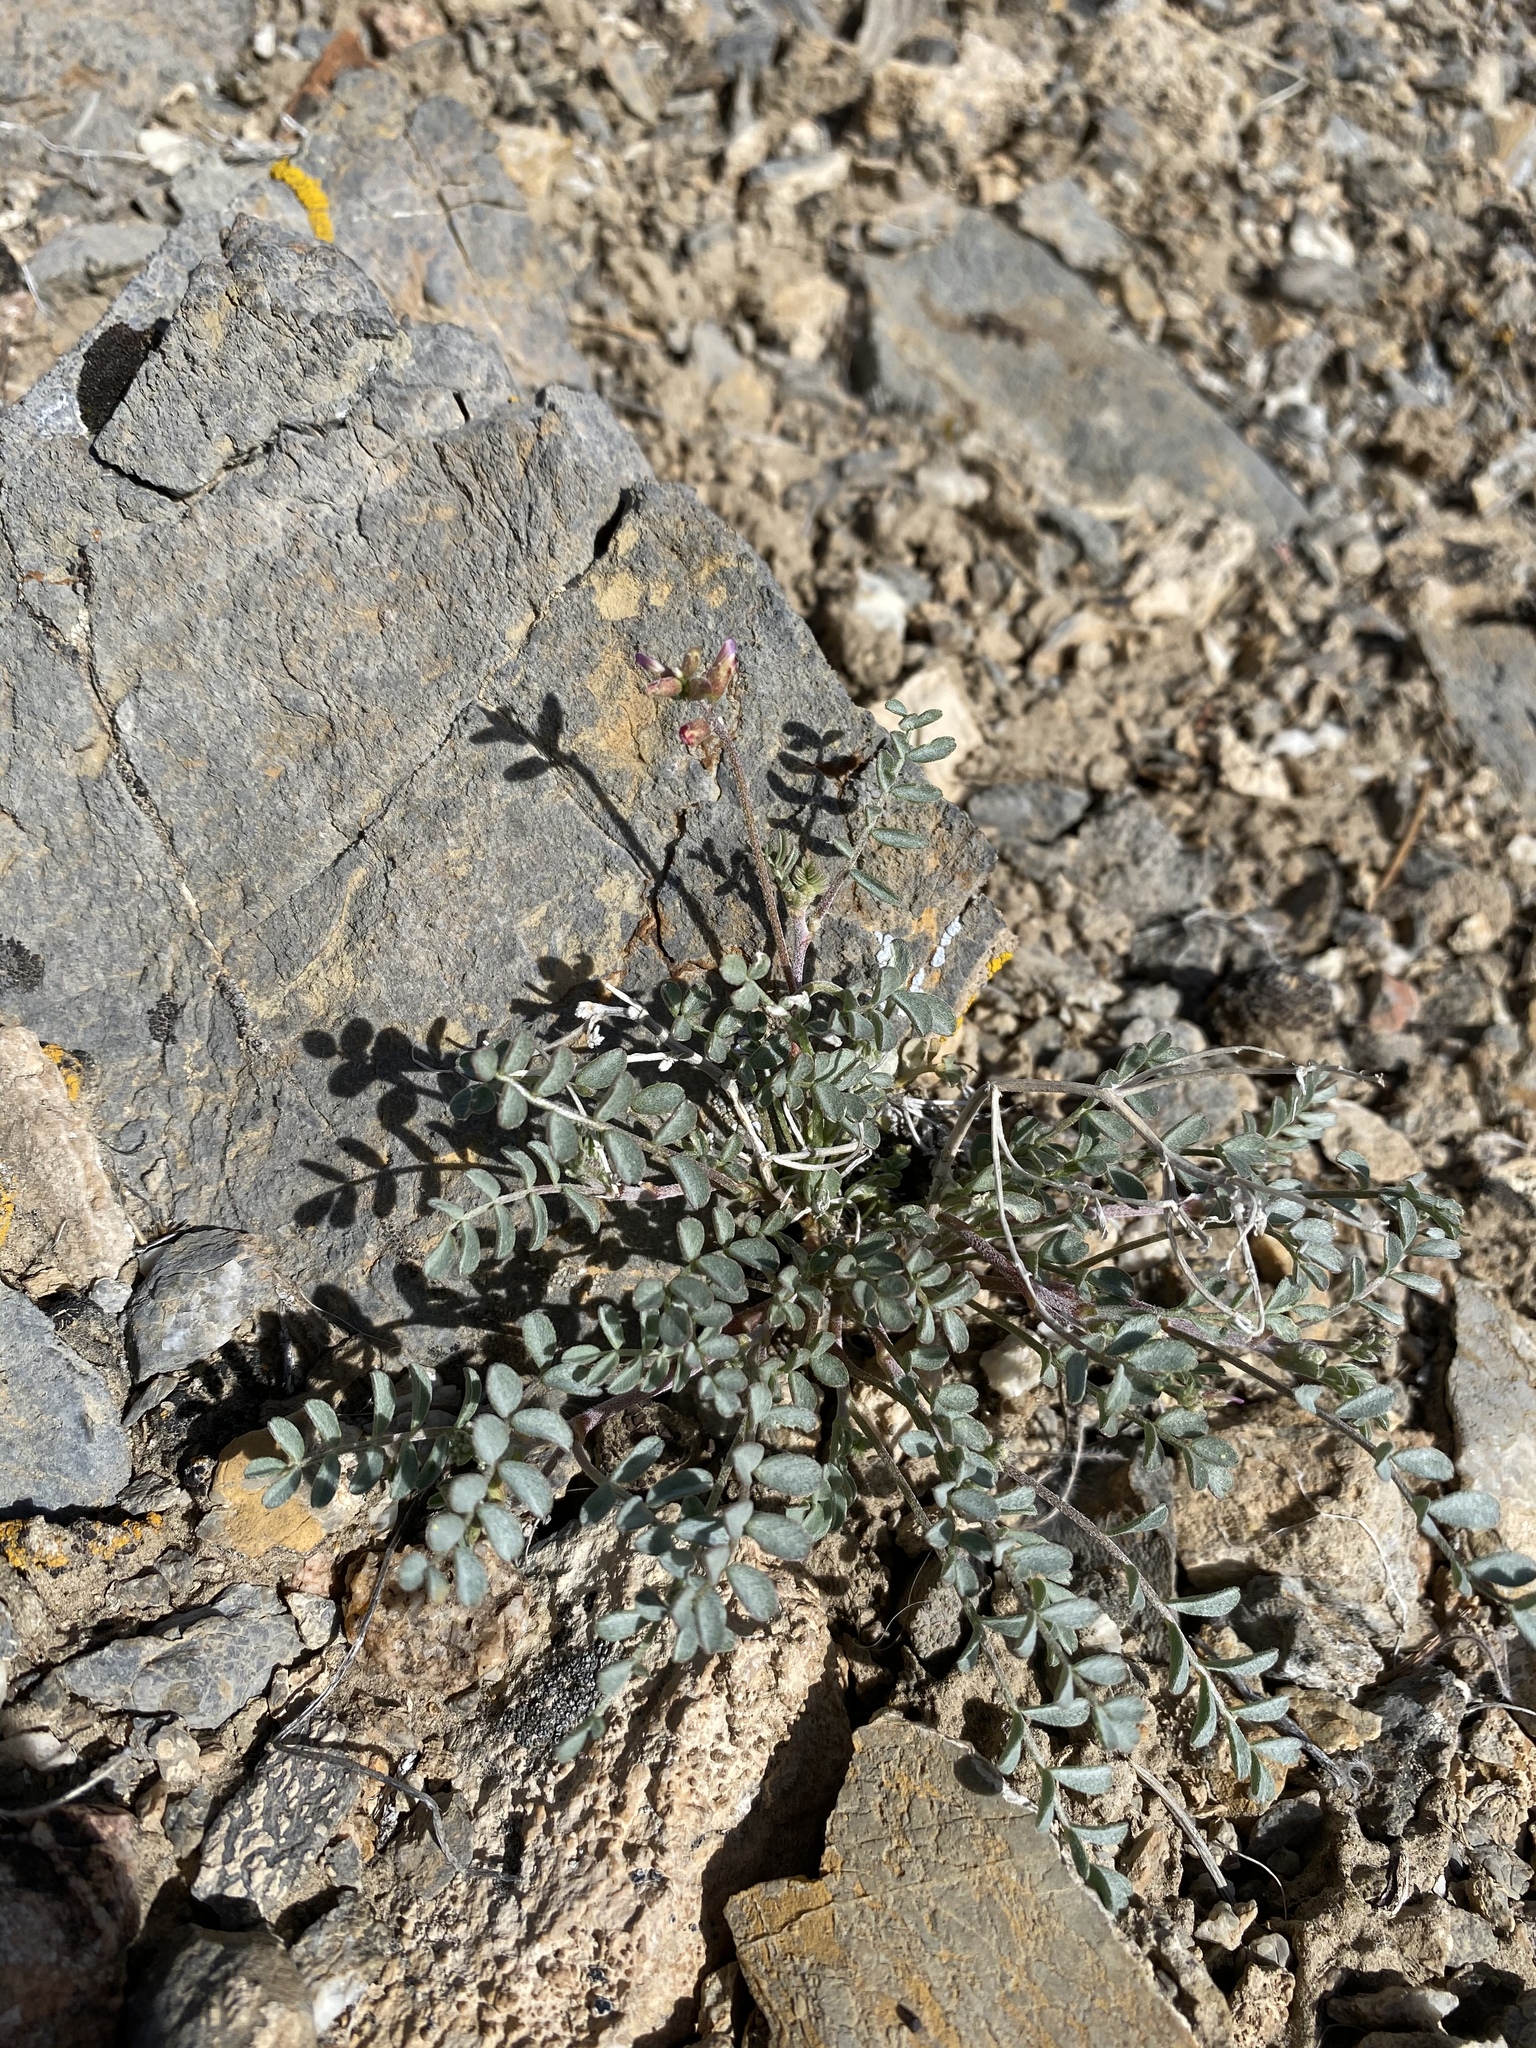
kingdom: Plantae
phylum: Tracheophyta
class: Magnoliopsida
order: Fabales
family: Fabaceae
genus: Astragalus
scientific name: Astragalus lentiginosus
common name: Freckled milkvetch
